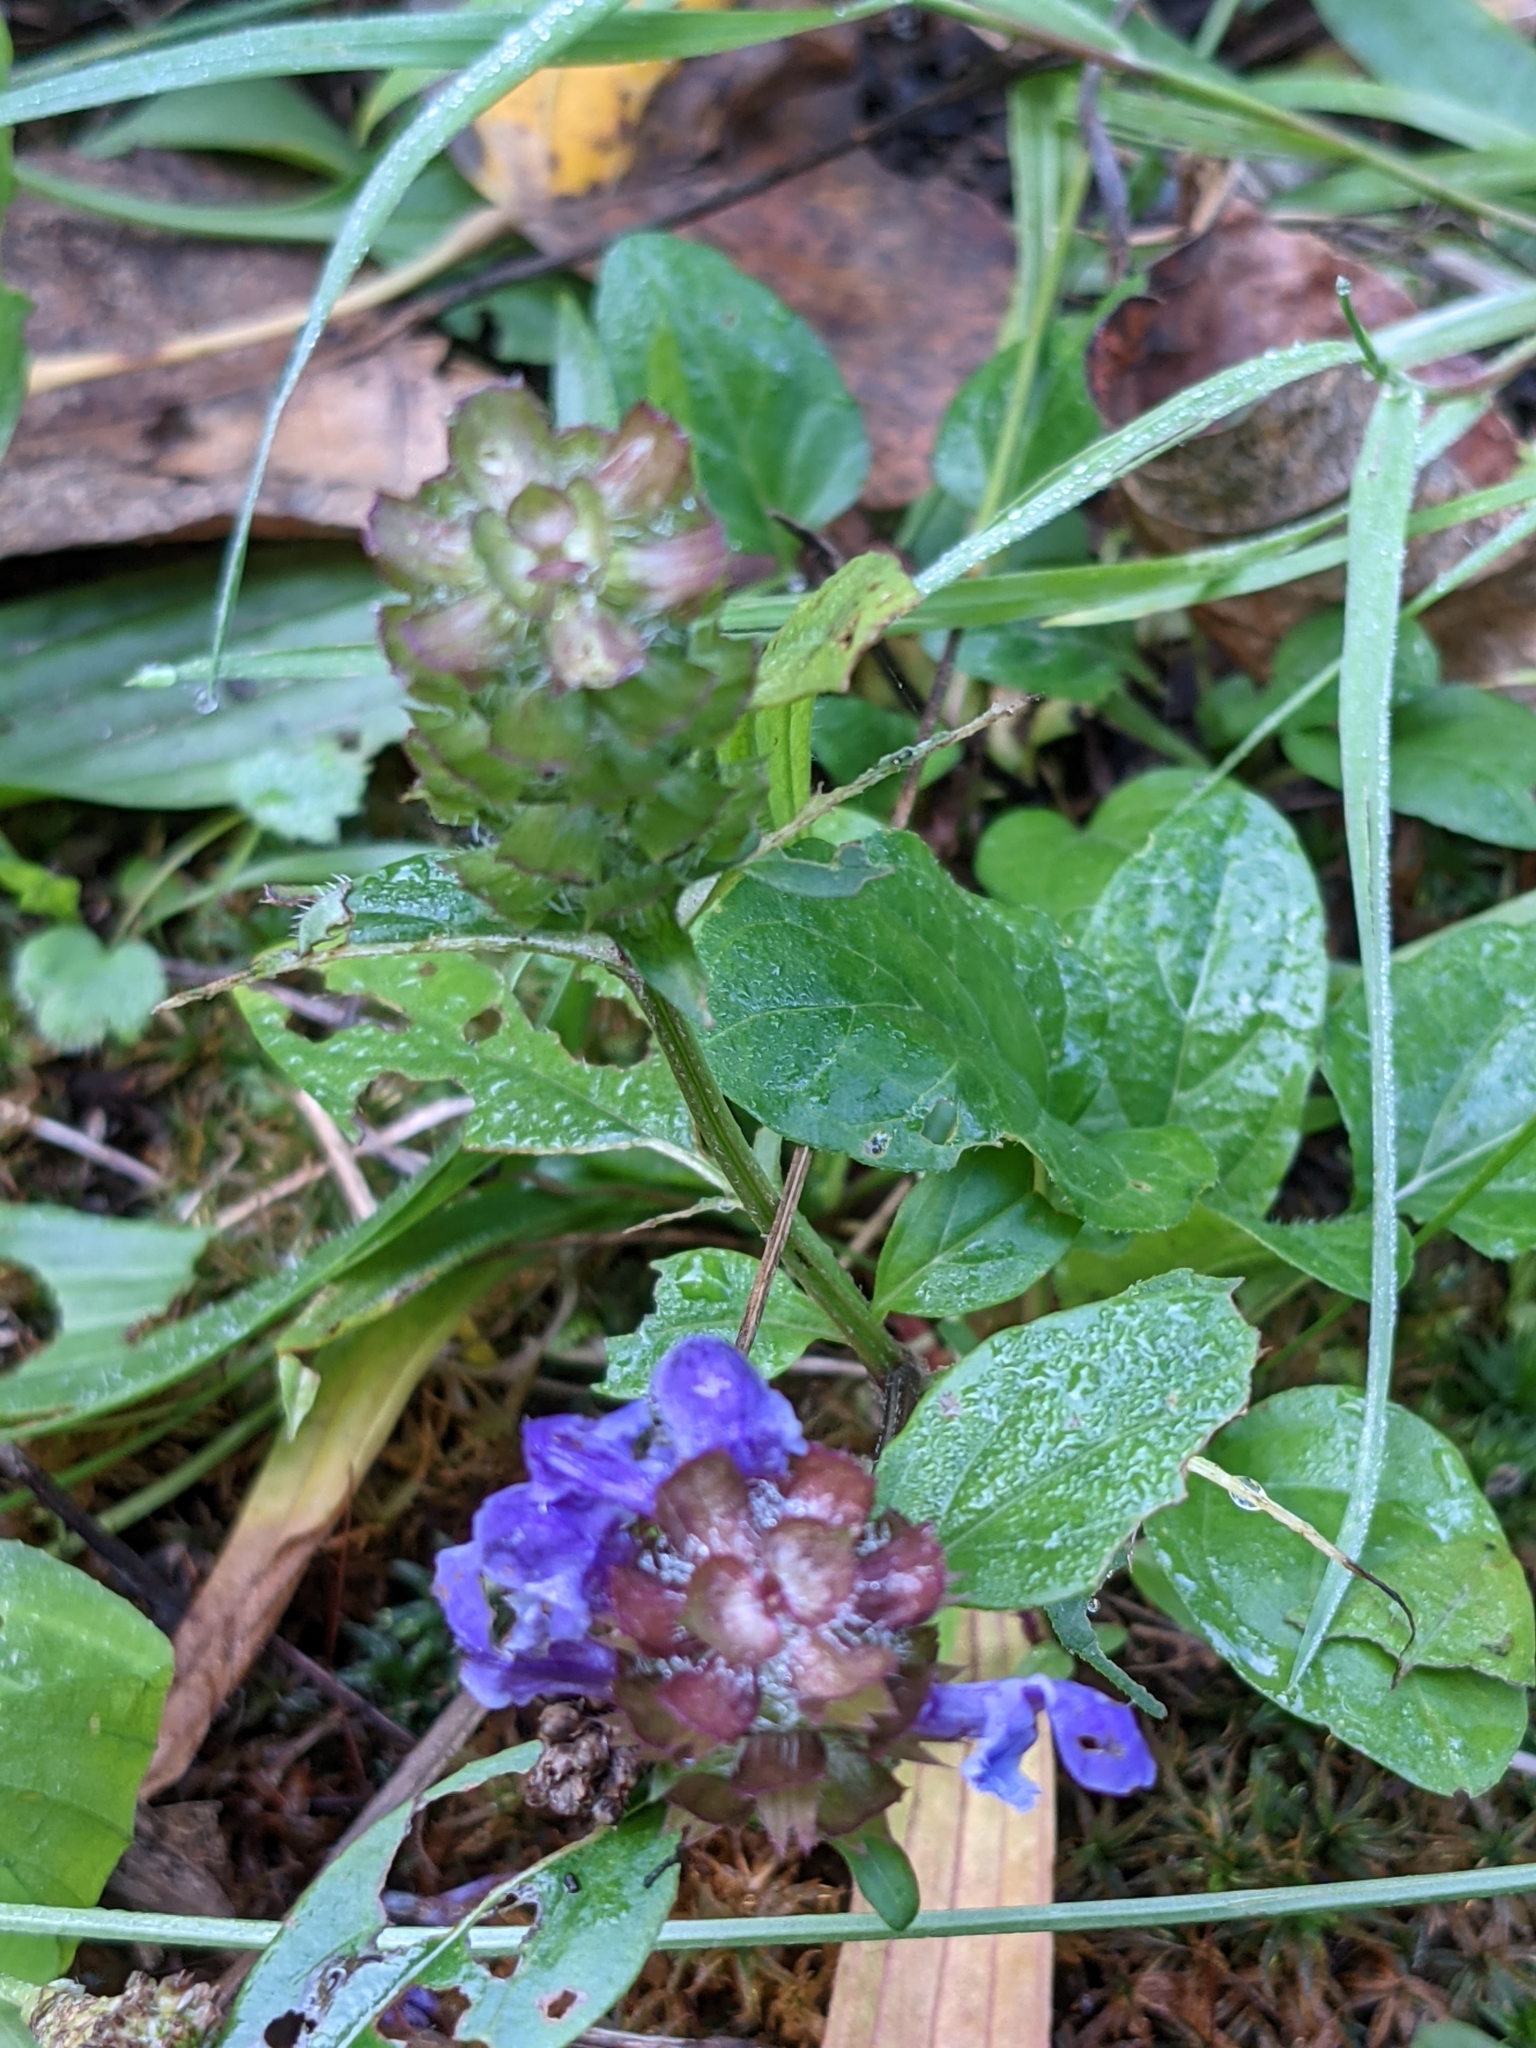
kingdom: Plantae
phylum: Tracheophyta
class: Magnoliopsida
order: Lamiales
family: Lamiaceae
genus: Prunella
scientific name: Prunella vulgaris
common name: Heal-all
